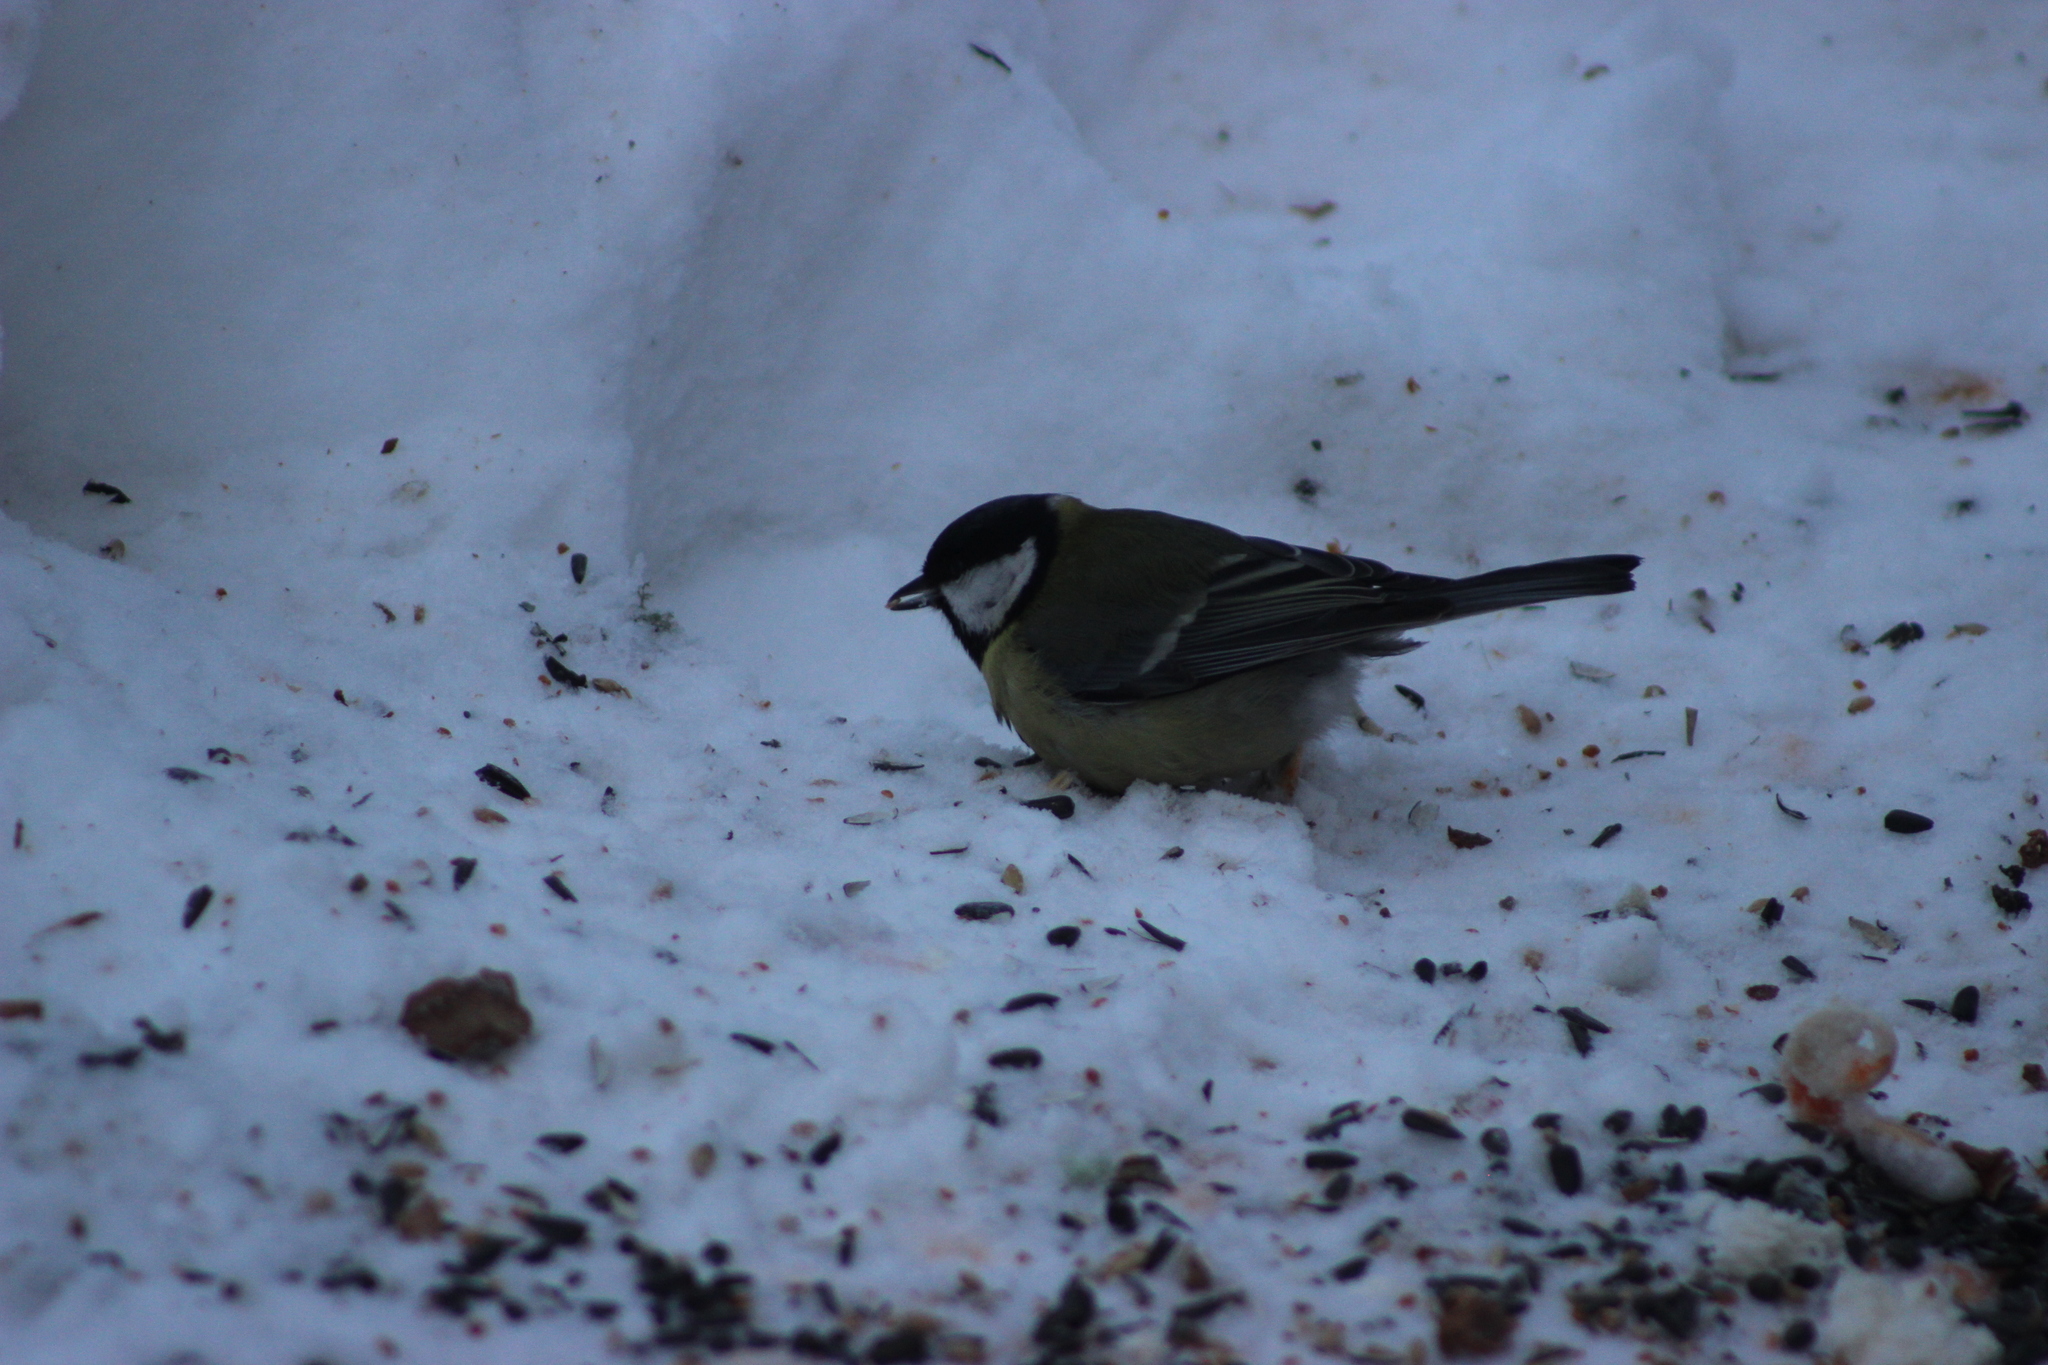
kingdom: Animalia
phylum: Chordata
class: Aves
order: Passeriformes
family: Paridae
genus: Parus
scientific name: Parus major
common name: Great tit
